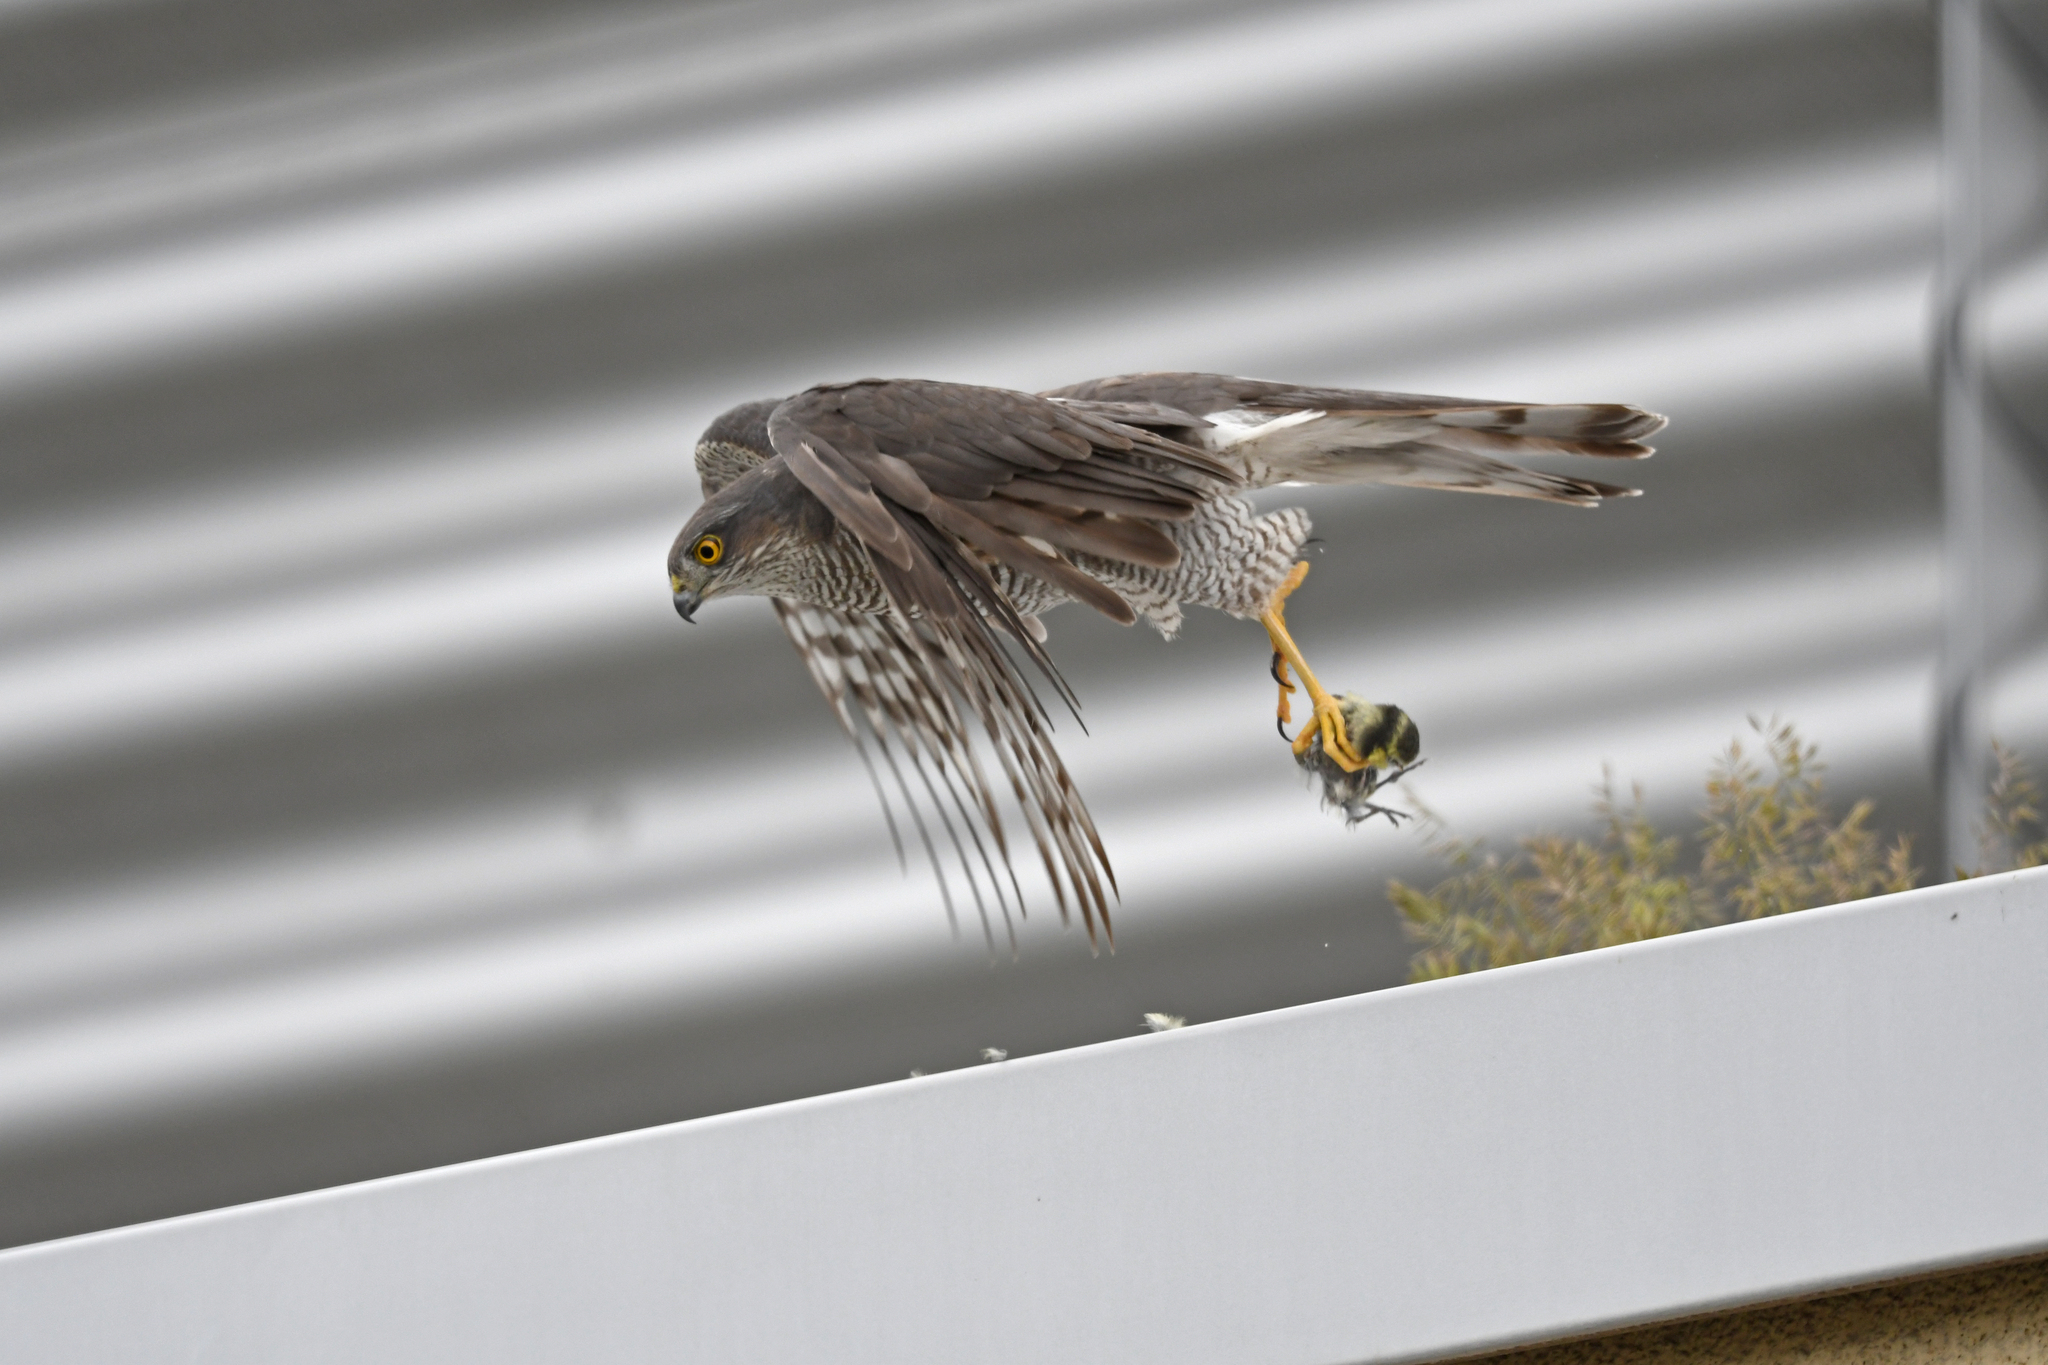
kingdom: Animalia
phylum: Chordata
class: Aves
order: Accipitriformes
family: Accipitridae
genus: Accipiter
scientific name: Accipiter nisus
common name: Eurasian sparrowhawk
